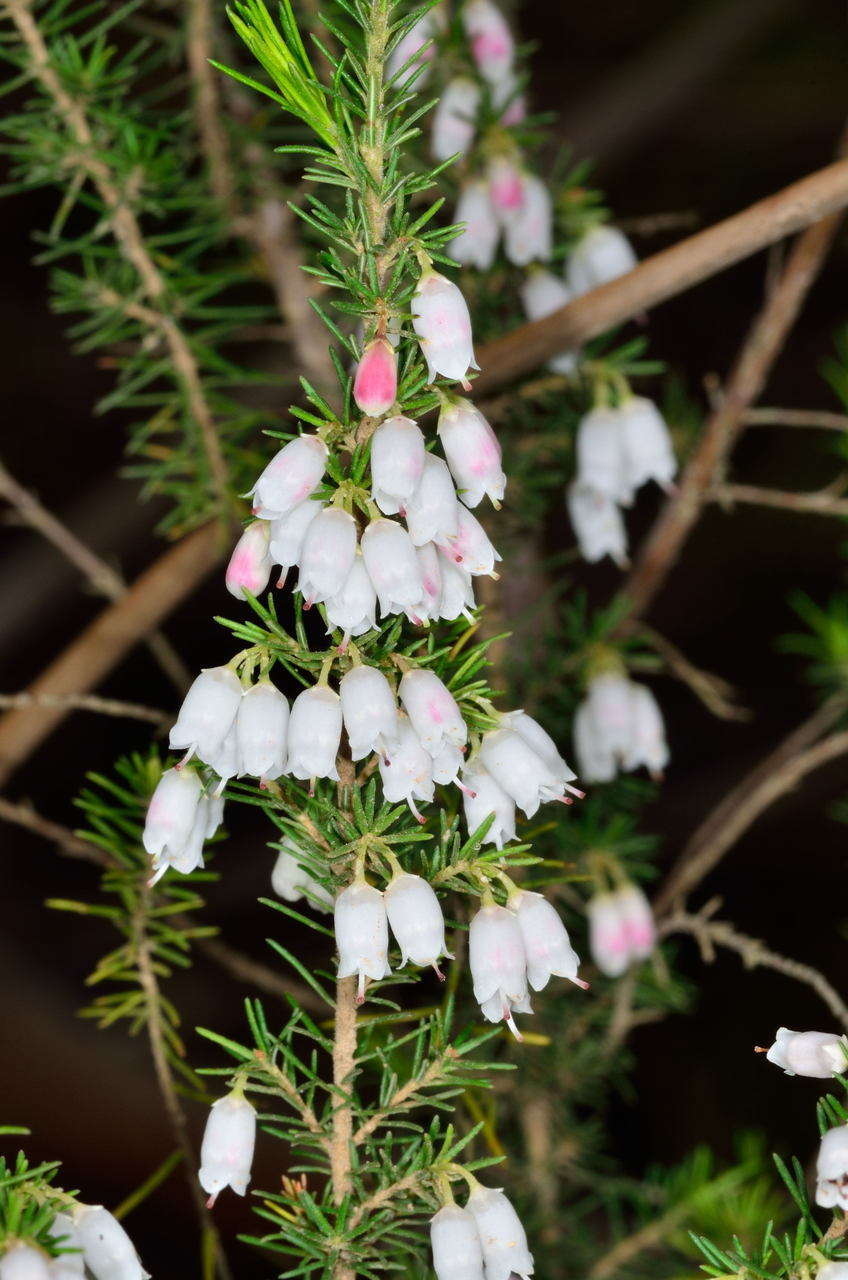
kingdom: Plantae
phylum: Tracheophyta
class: Magnoliopsida
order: Ericales
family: Ericaceae
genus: Erica
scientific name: Erica lusitanica
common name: Spanish heath
